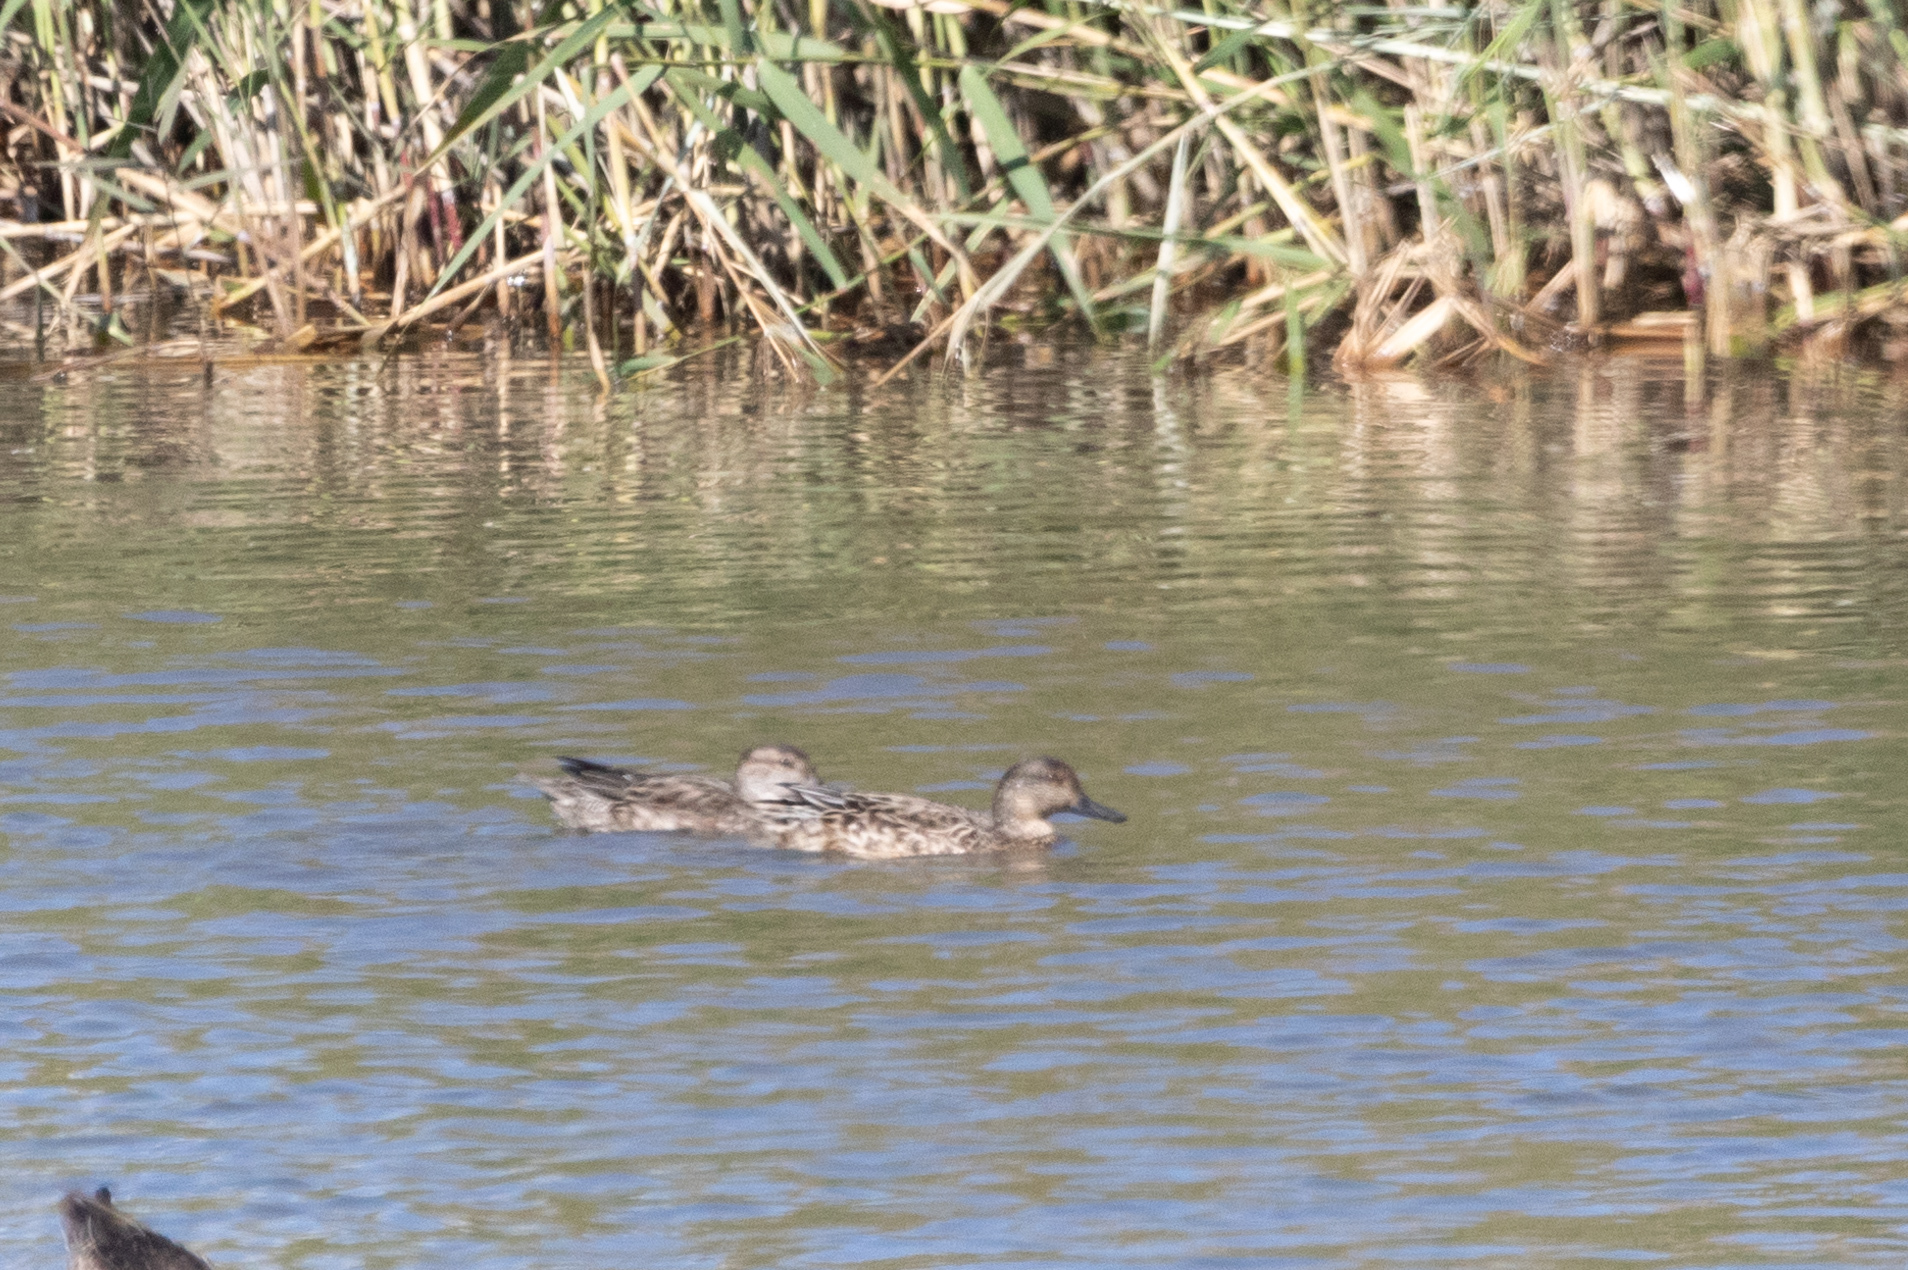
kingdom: Animalia
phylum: Chordata
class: Aves
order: Anseriformes
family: Anatidae
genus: Anas
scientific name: Anas crecca
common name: Eurasian teal
